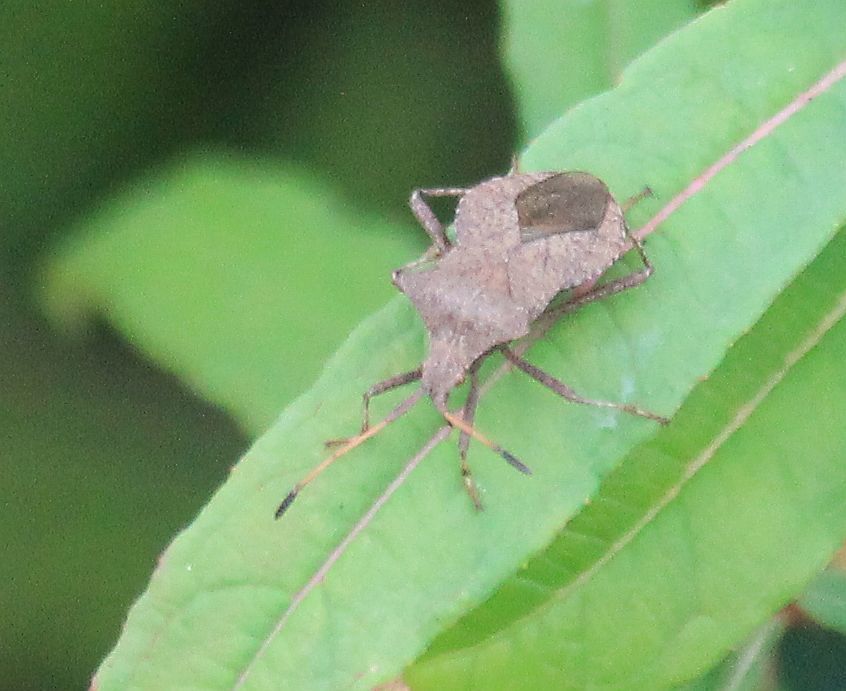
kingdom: Animalia
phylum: Arthropoda
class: Insecta
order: Hemiptera
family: Coreidae
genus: Coreus
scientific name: Coreus marginatus
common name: Dock bug
